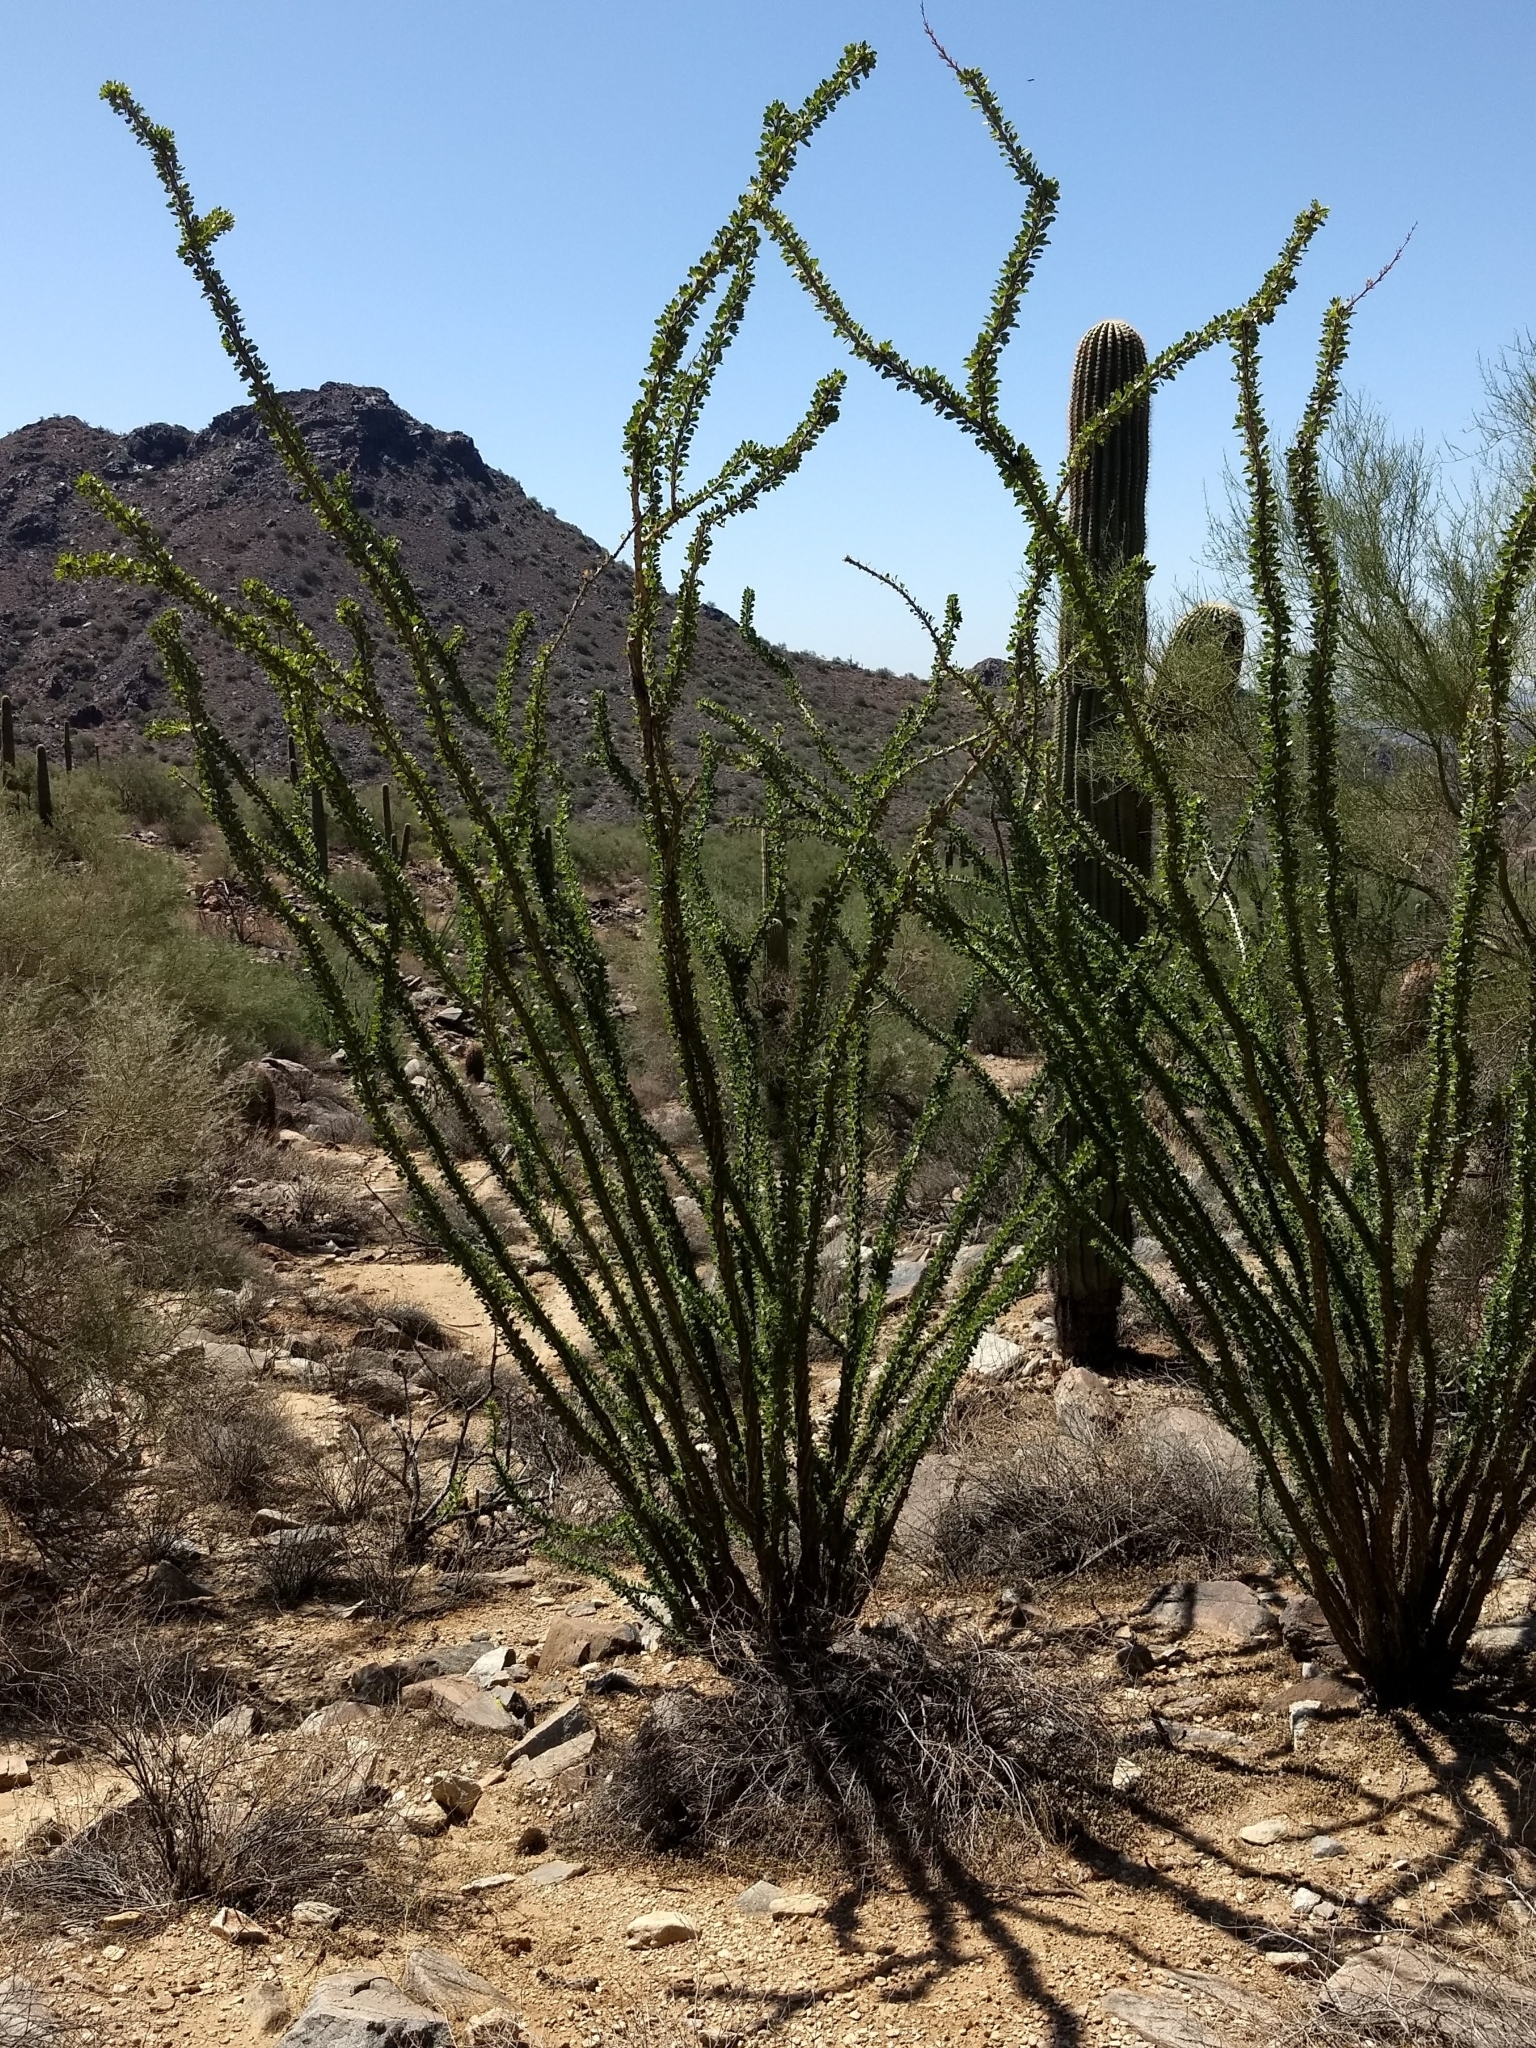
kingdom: Plantae
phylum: Tracheophyta
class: Magnoliopsida
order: Ericales
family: Fouquieriaceae
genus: Fouquieria
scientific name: Fouquieria splendens
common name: Vine-cactus
